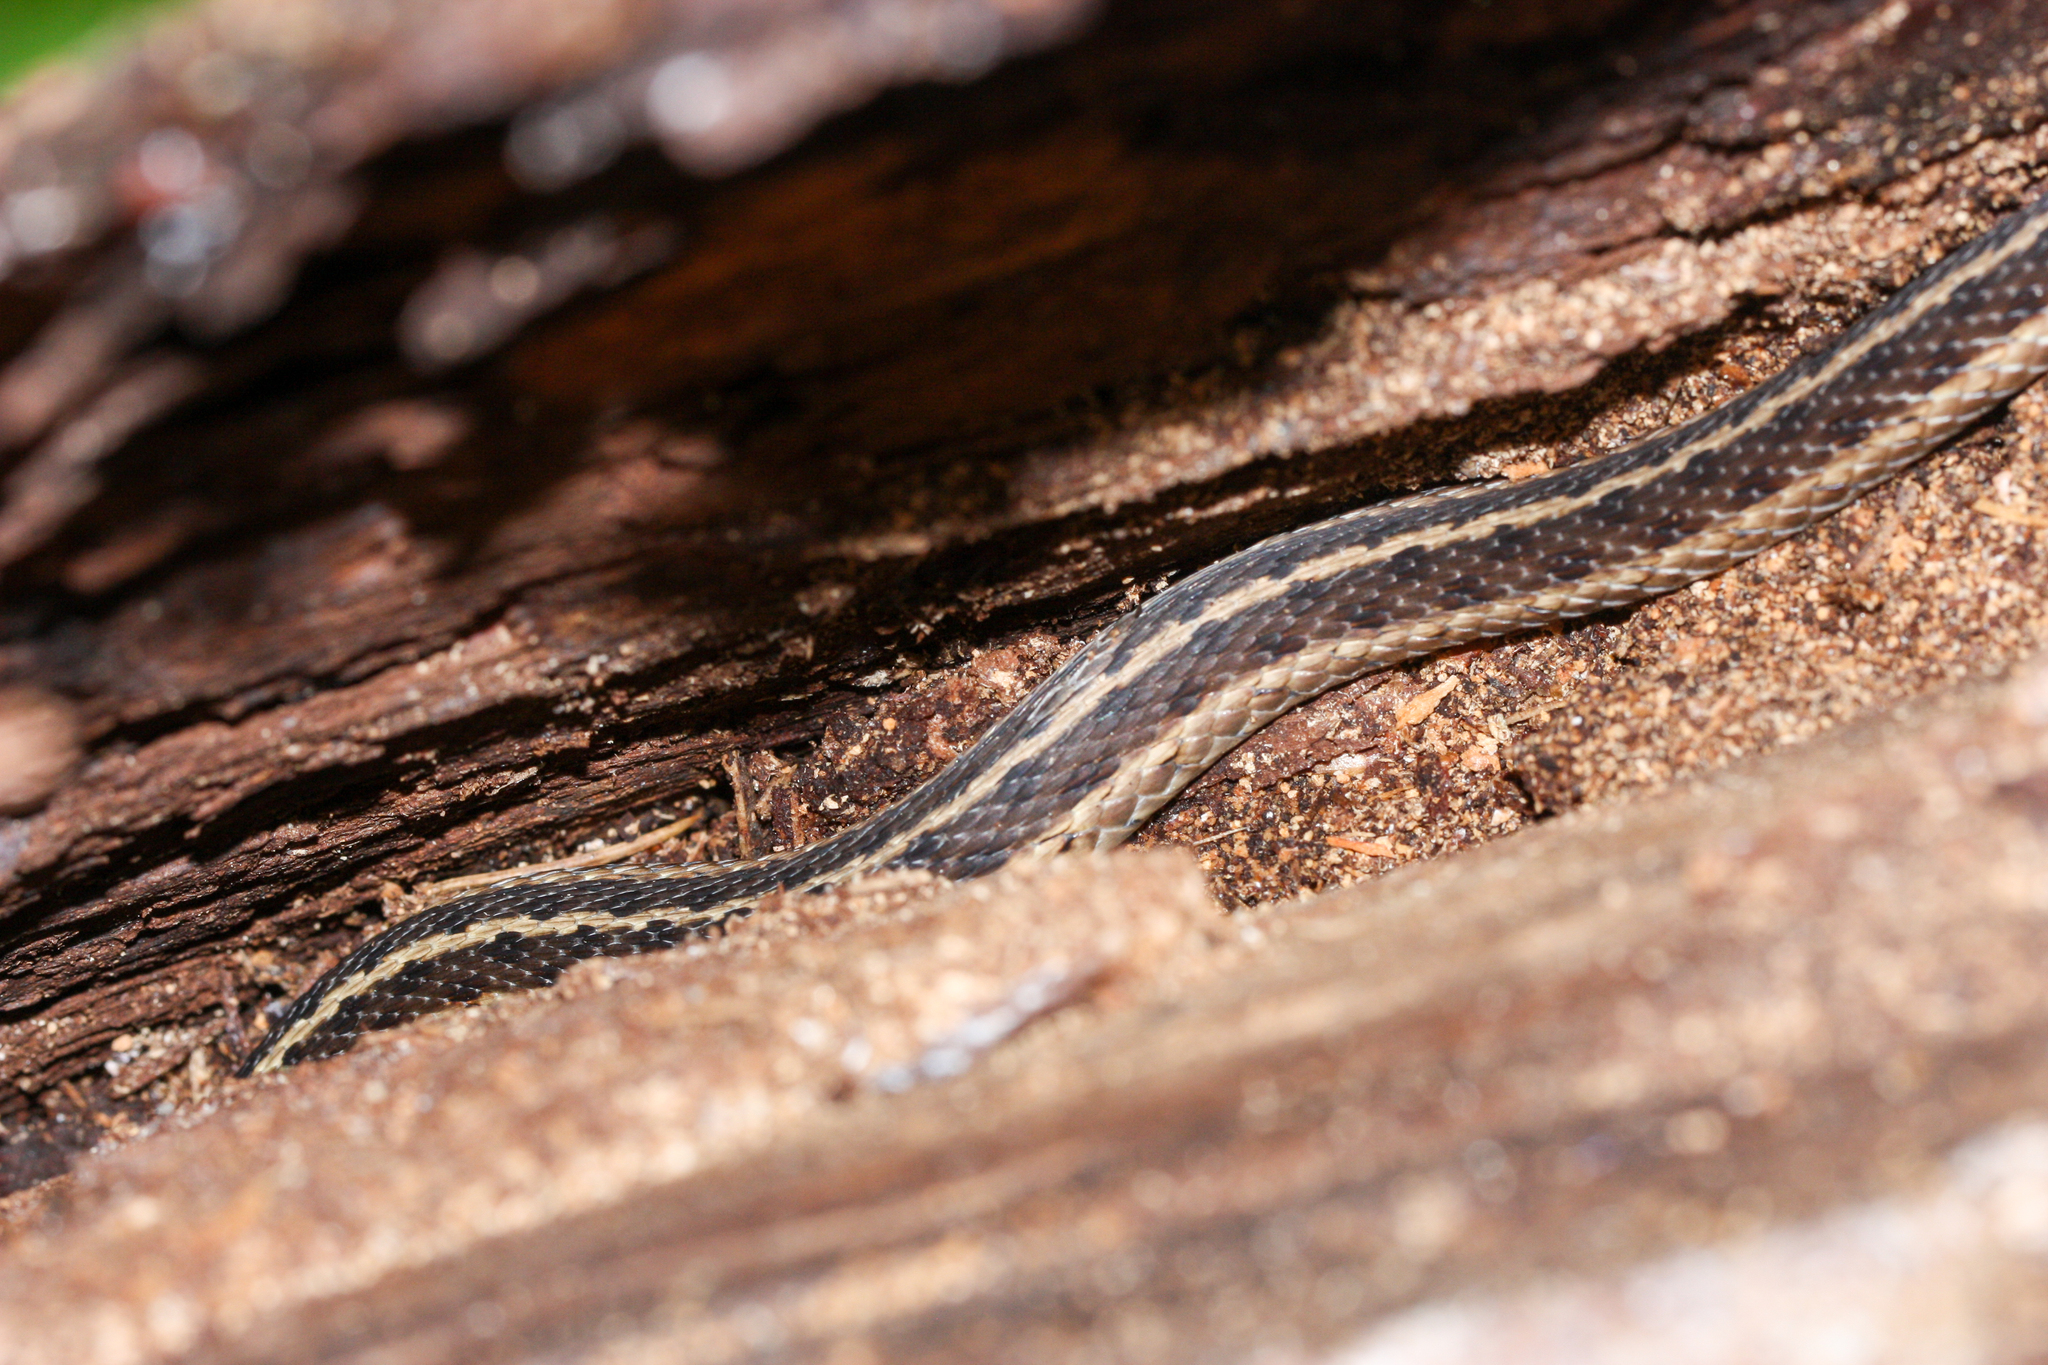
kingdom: Animalia
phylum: Chordata
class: Squamata
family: Colubridae
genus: Thamnophis
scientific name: Thamnophis sirtalis
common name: Common garter snake
